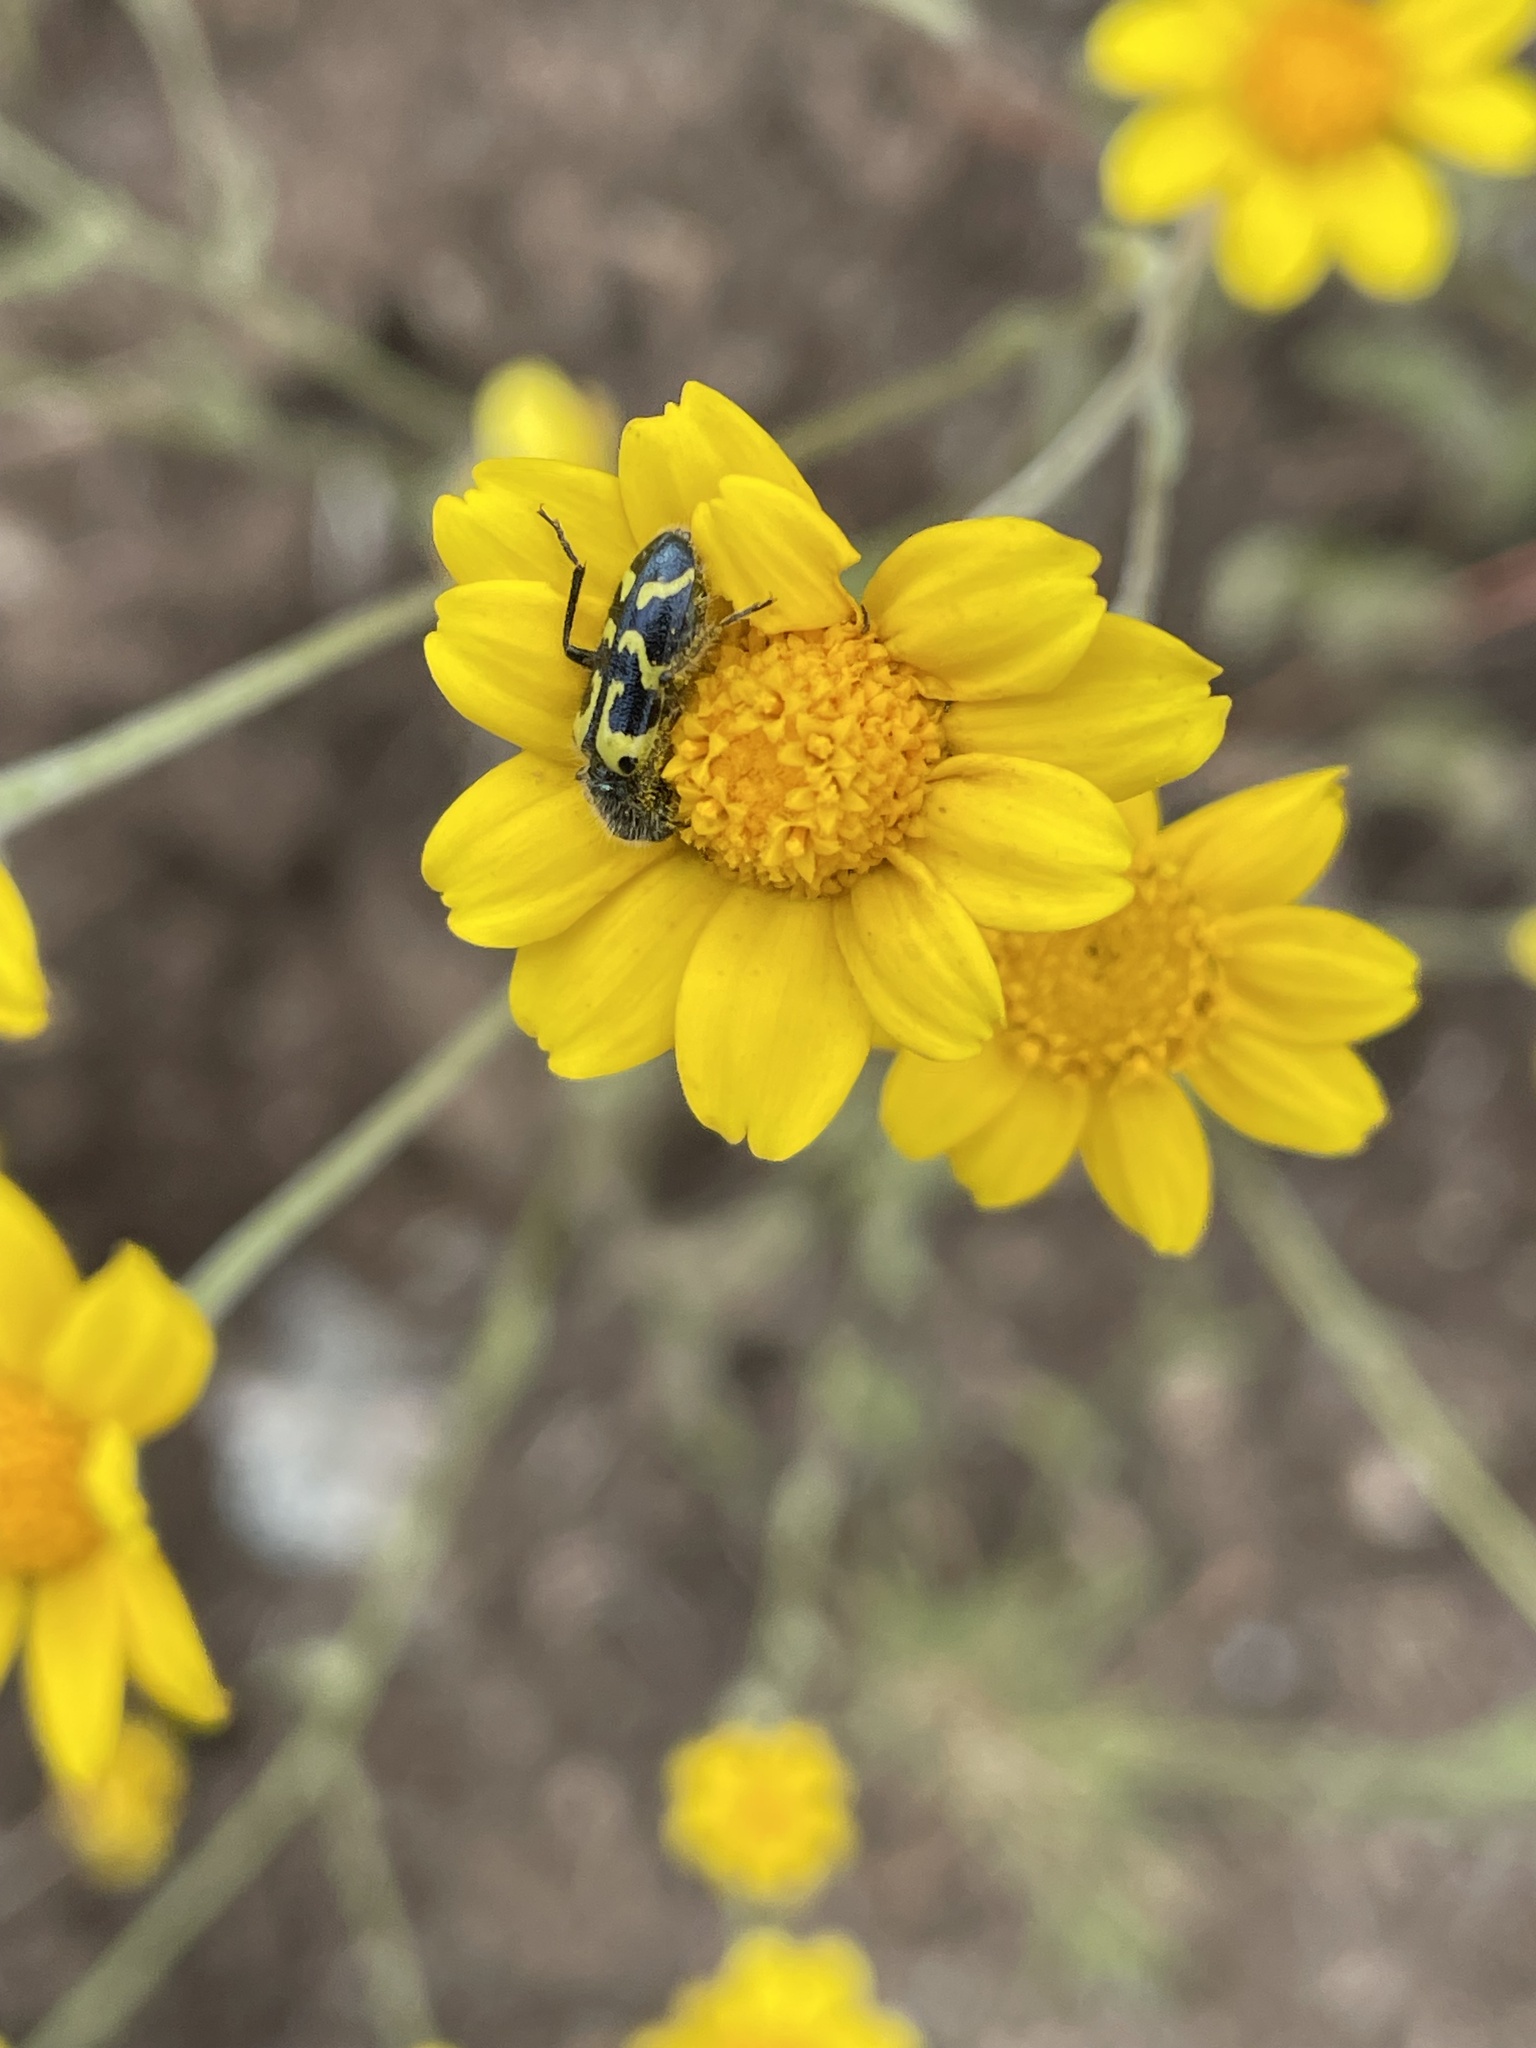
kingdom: Animalia
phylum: Arthropoda
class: Insecta
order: Coleoptera
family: Cleridae
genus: Trichodes
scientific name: Trichodes ornatus
